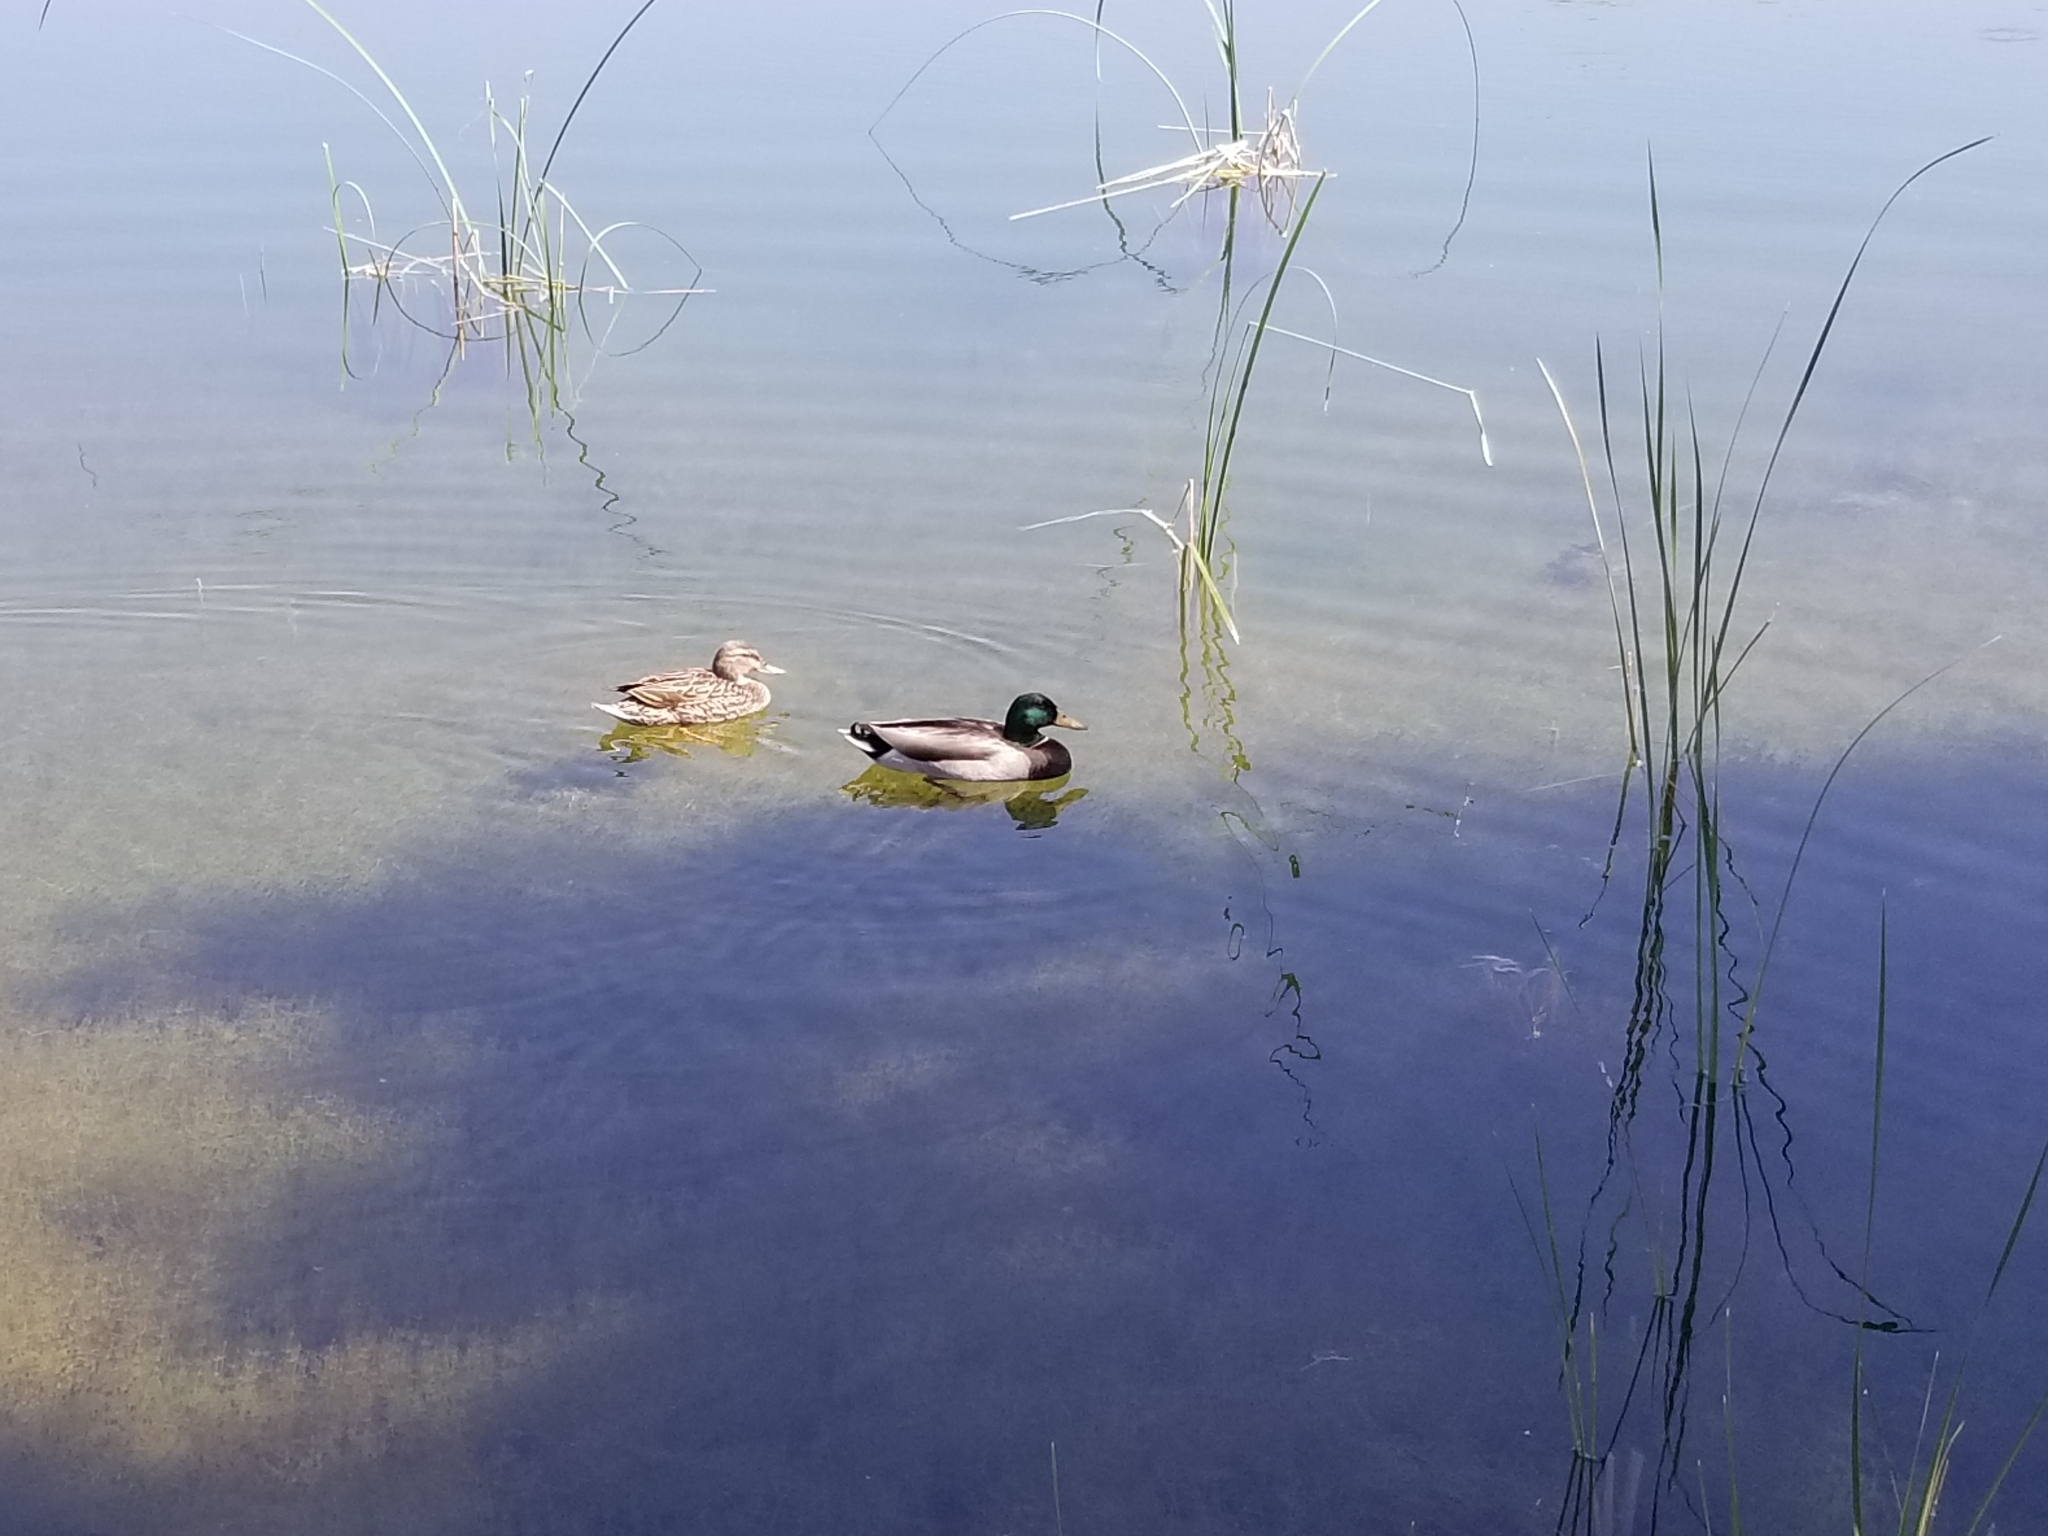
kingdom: Animalia
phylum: Chordata
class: Aves
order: Anseriformes
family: Anatidae
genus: Anas
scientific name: Anas platyrhynchos
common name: Mallard
